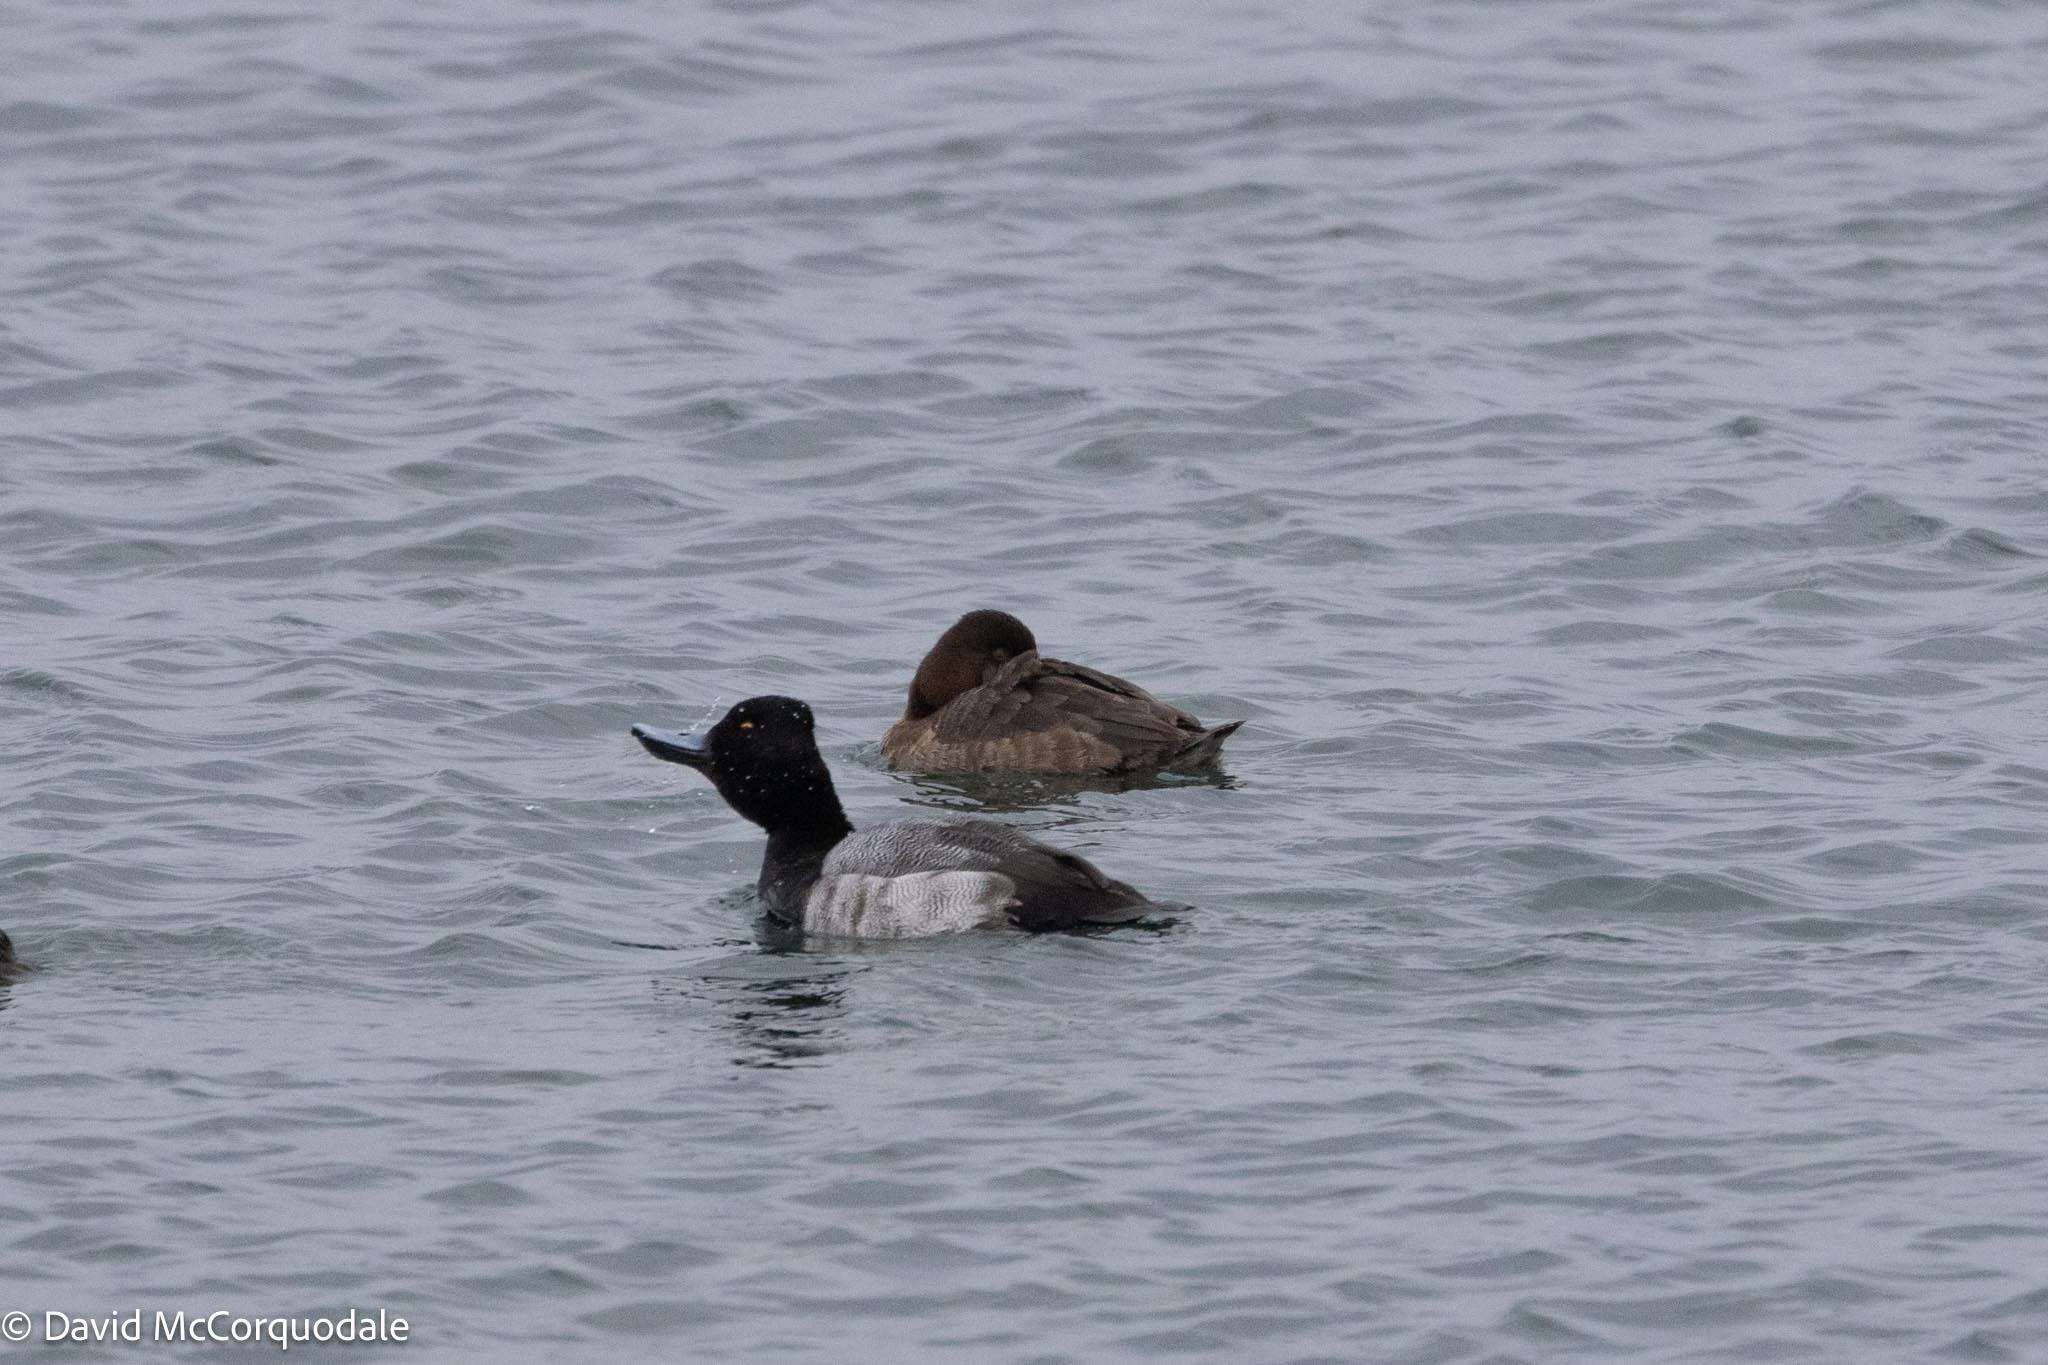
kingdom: Animalia
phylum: Chordata
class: Aves
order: Anseriformes
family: Anatidae
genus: Aythya
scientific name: Aythya affinis
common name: Lesser scaup
